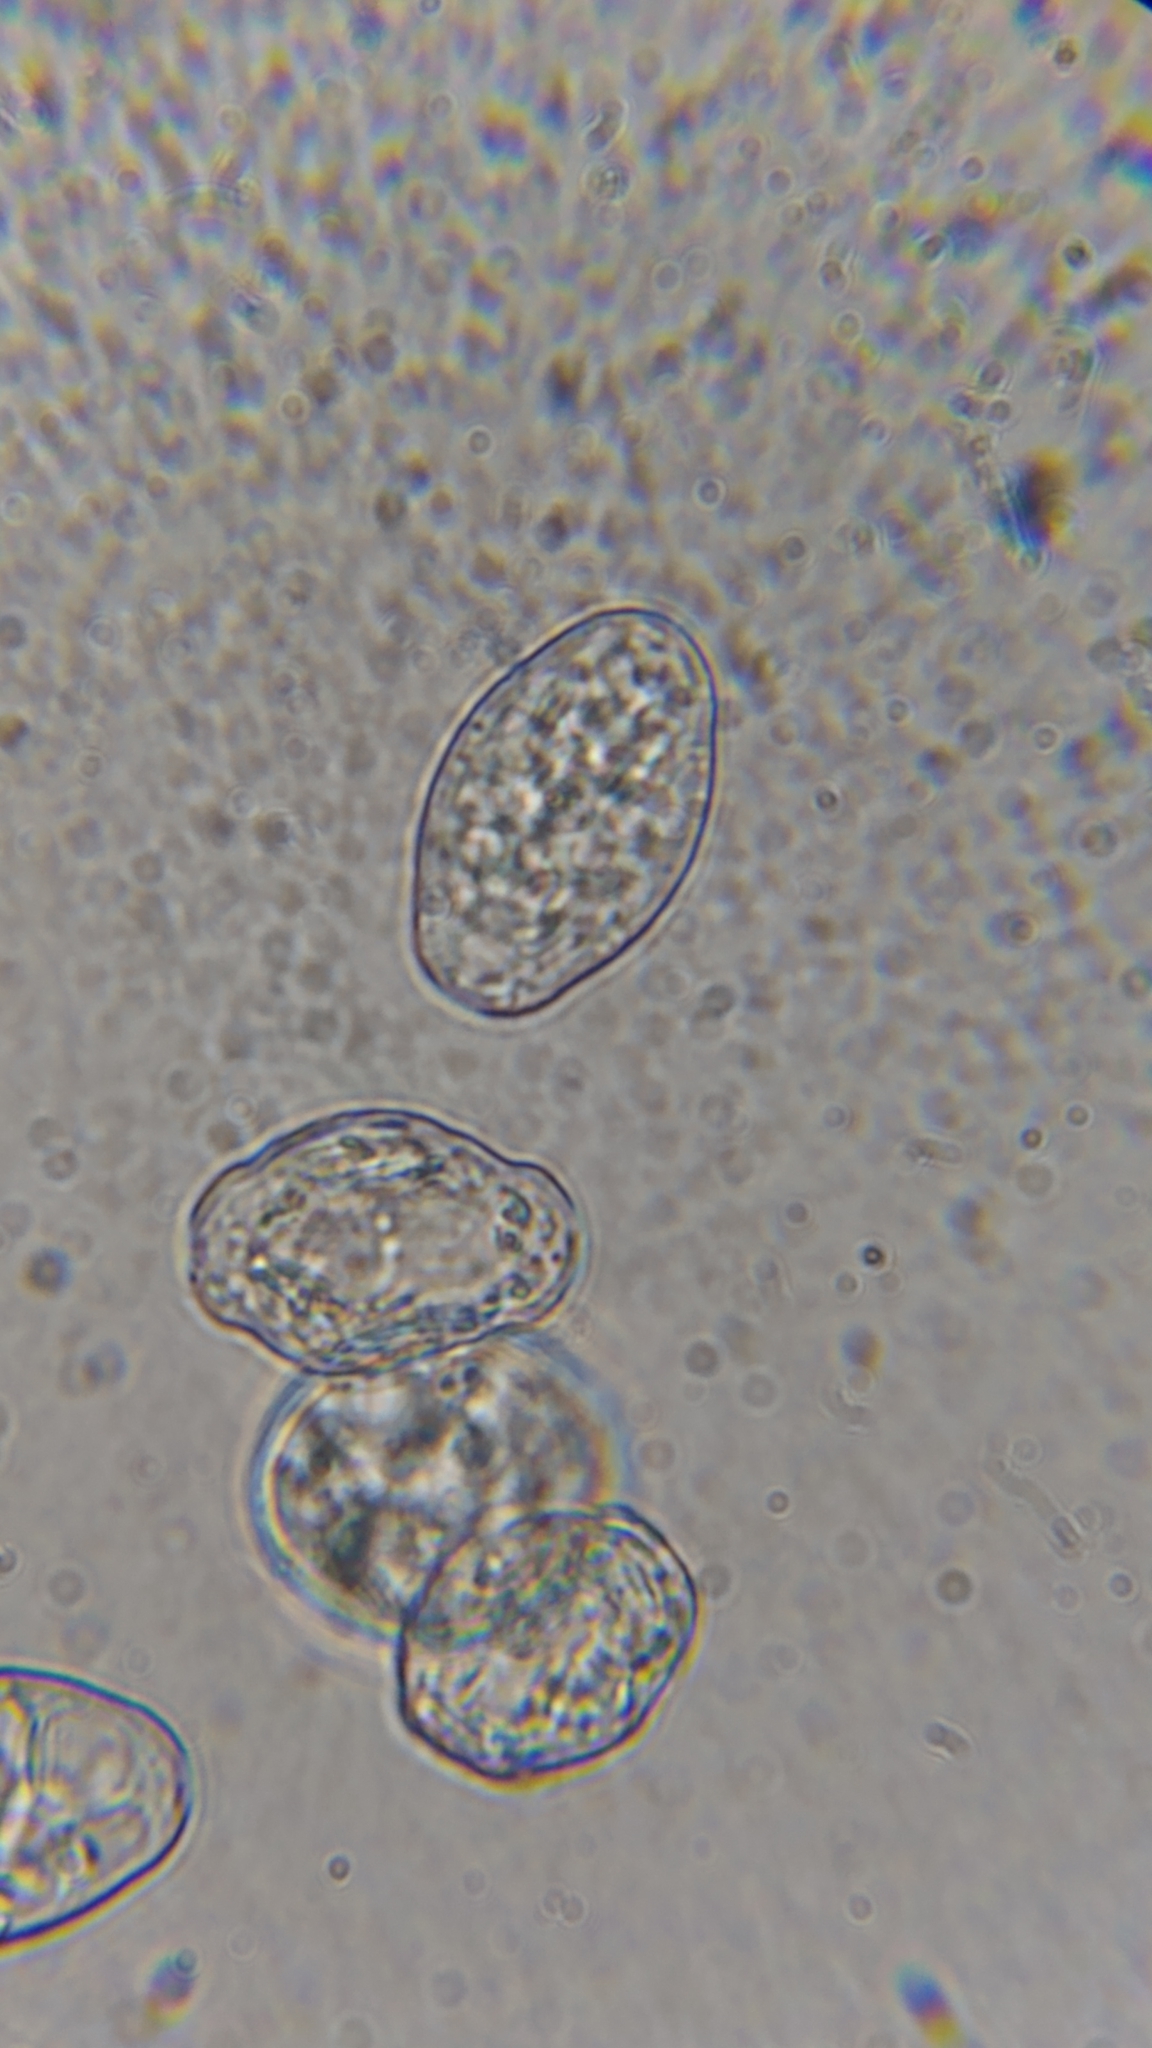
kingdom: Fungi
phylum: Ascomycota
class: Leotiomycetes
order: Helotiales
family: Erysiphaceae
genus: Podosphaera
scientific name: Podosphaera aphanis
